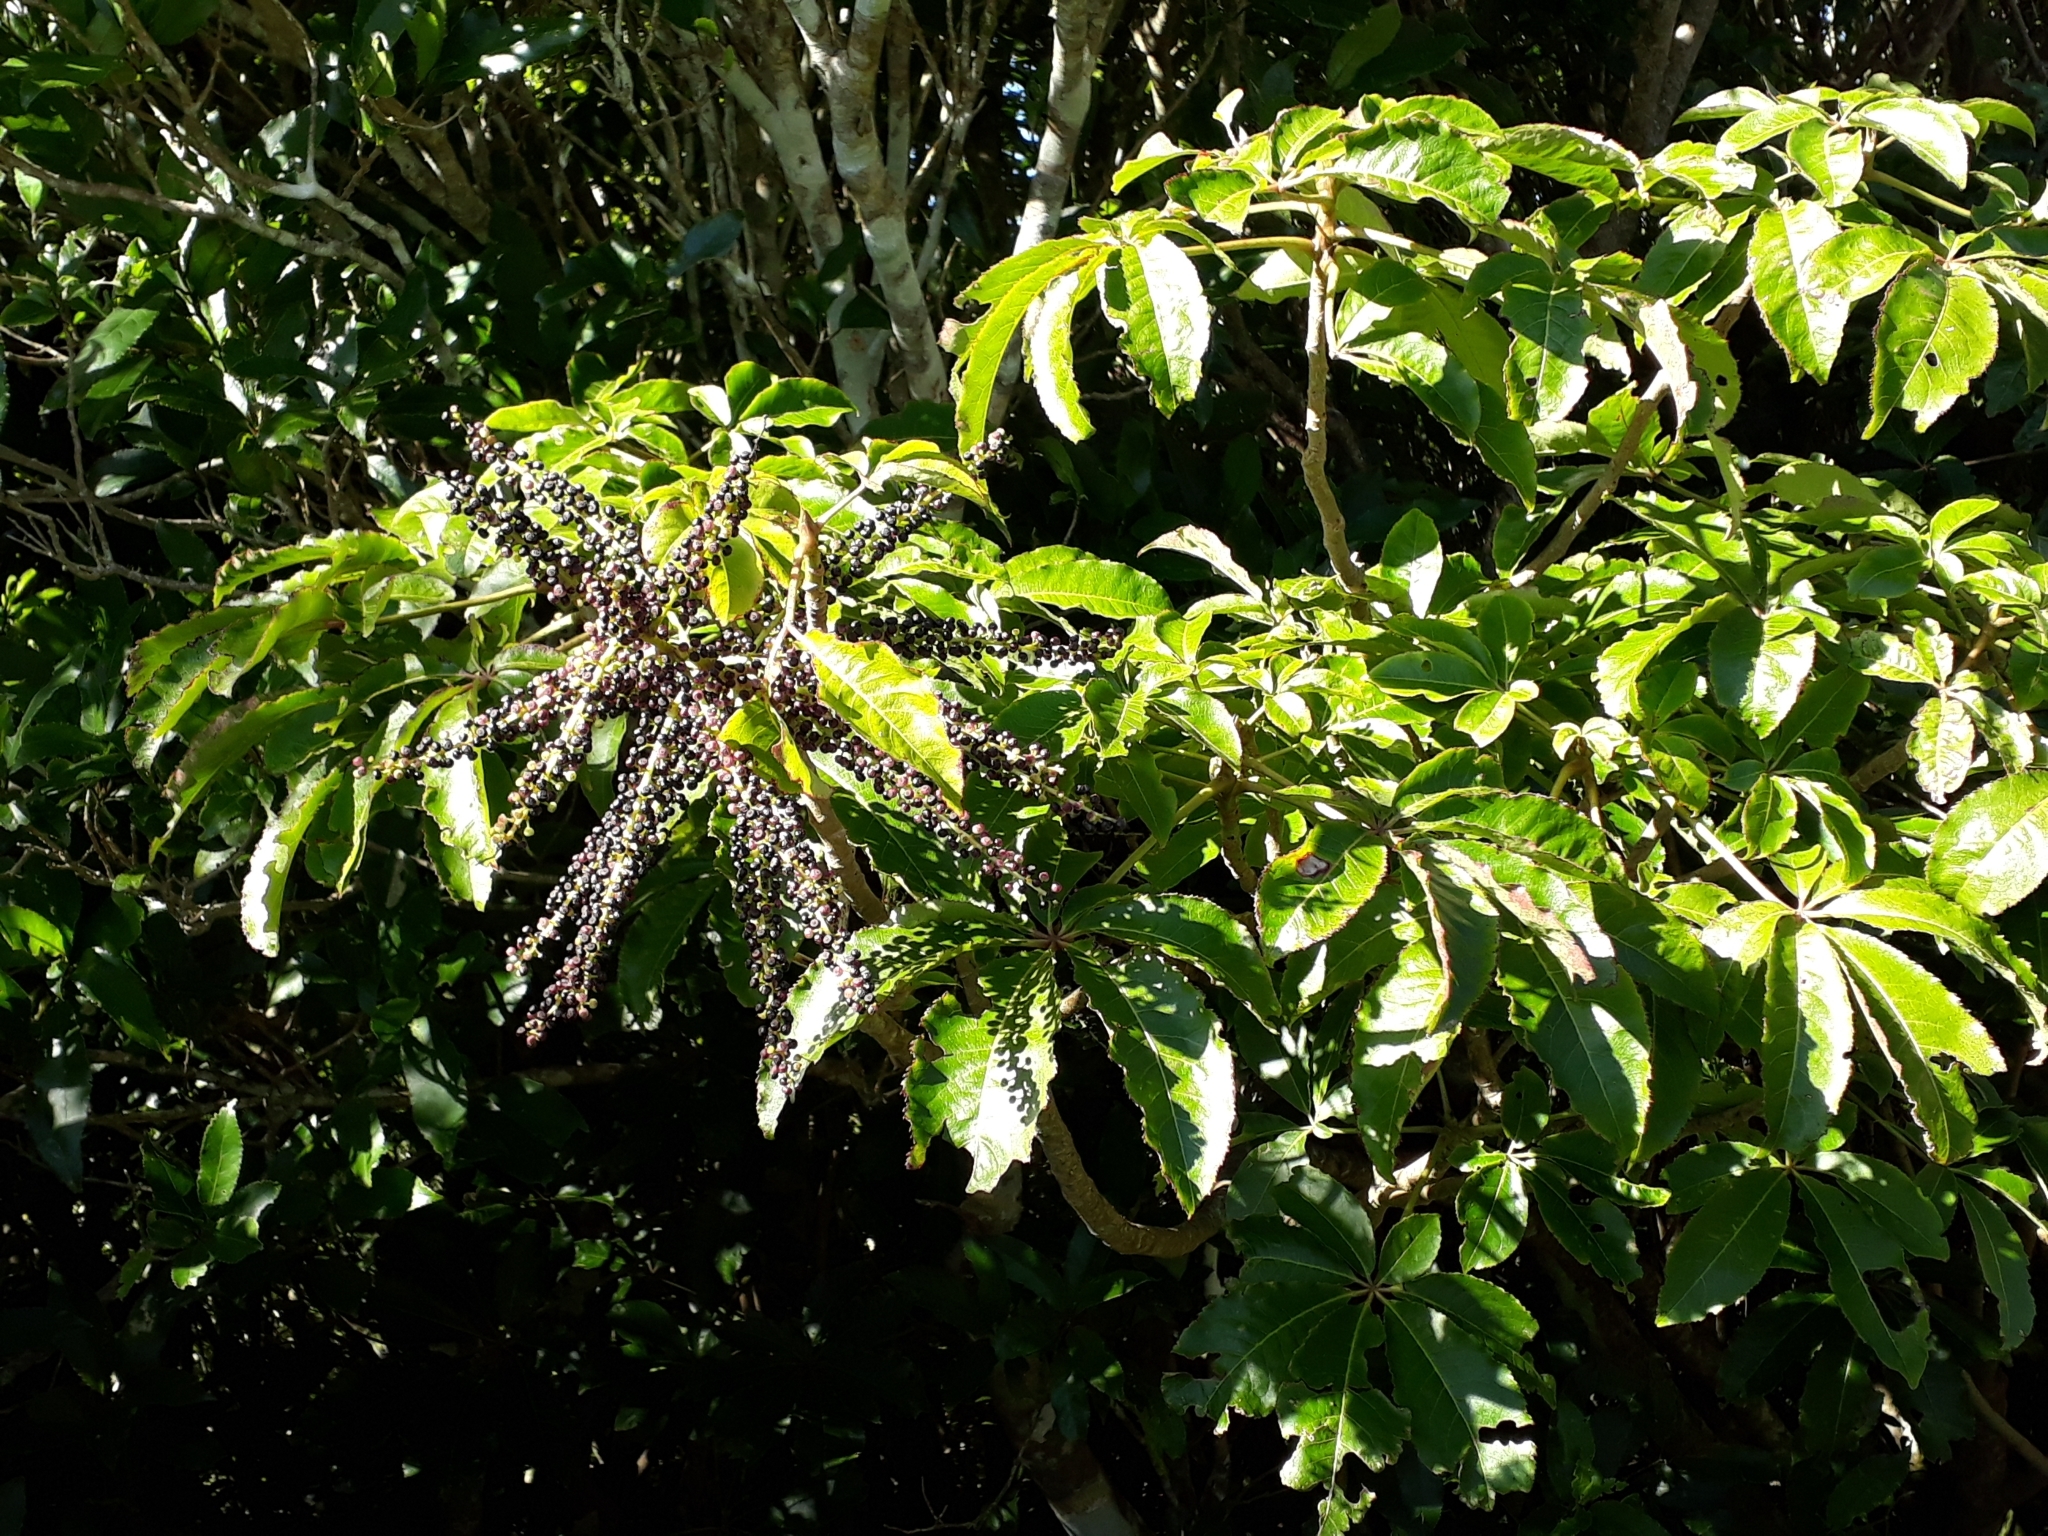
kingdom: Plantae
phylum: Tracheophyta
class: Magnoliopsida
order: Apiales
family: Araliaceae
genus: Schefflera
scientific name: Schefflera digitata
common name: Pate
